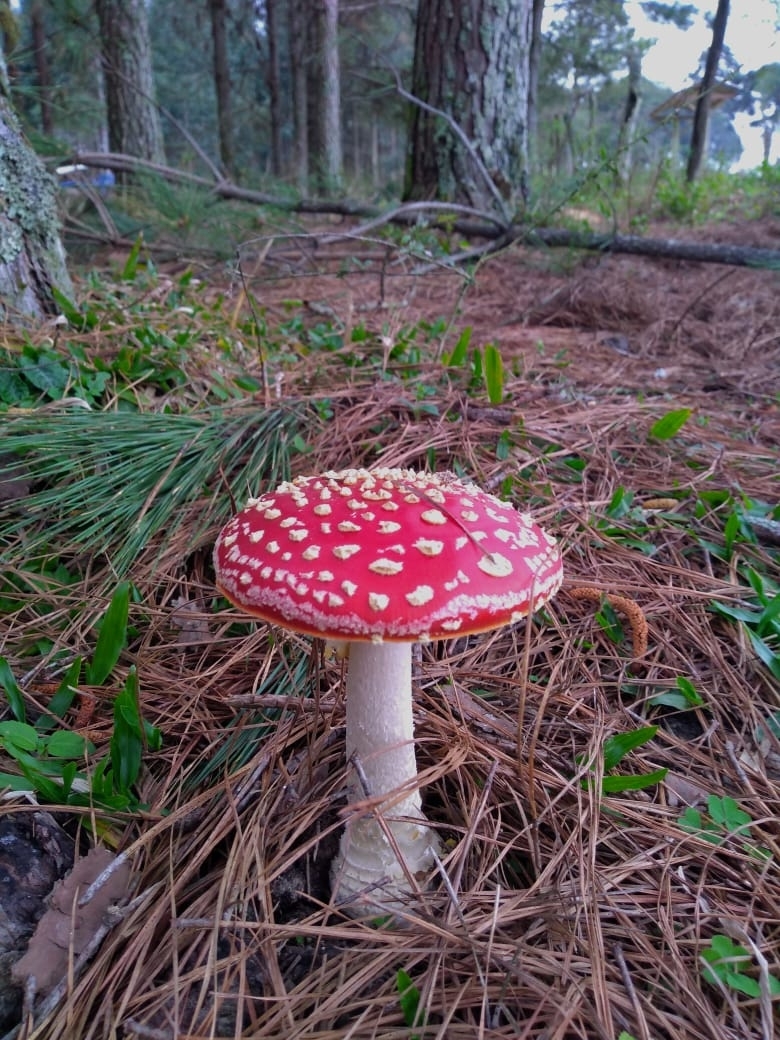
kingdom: Fungi
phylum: Basidiomycota
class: Agaricomycetes
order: Agaricales
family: Amanitaceae
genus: Amanita
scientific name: Amanita muscaria
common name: Fly agaric
